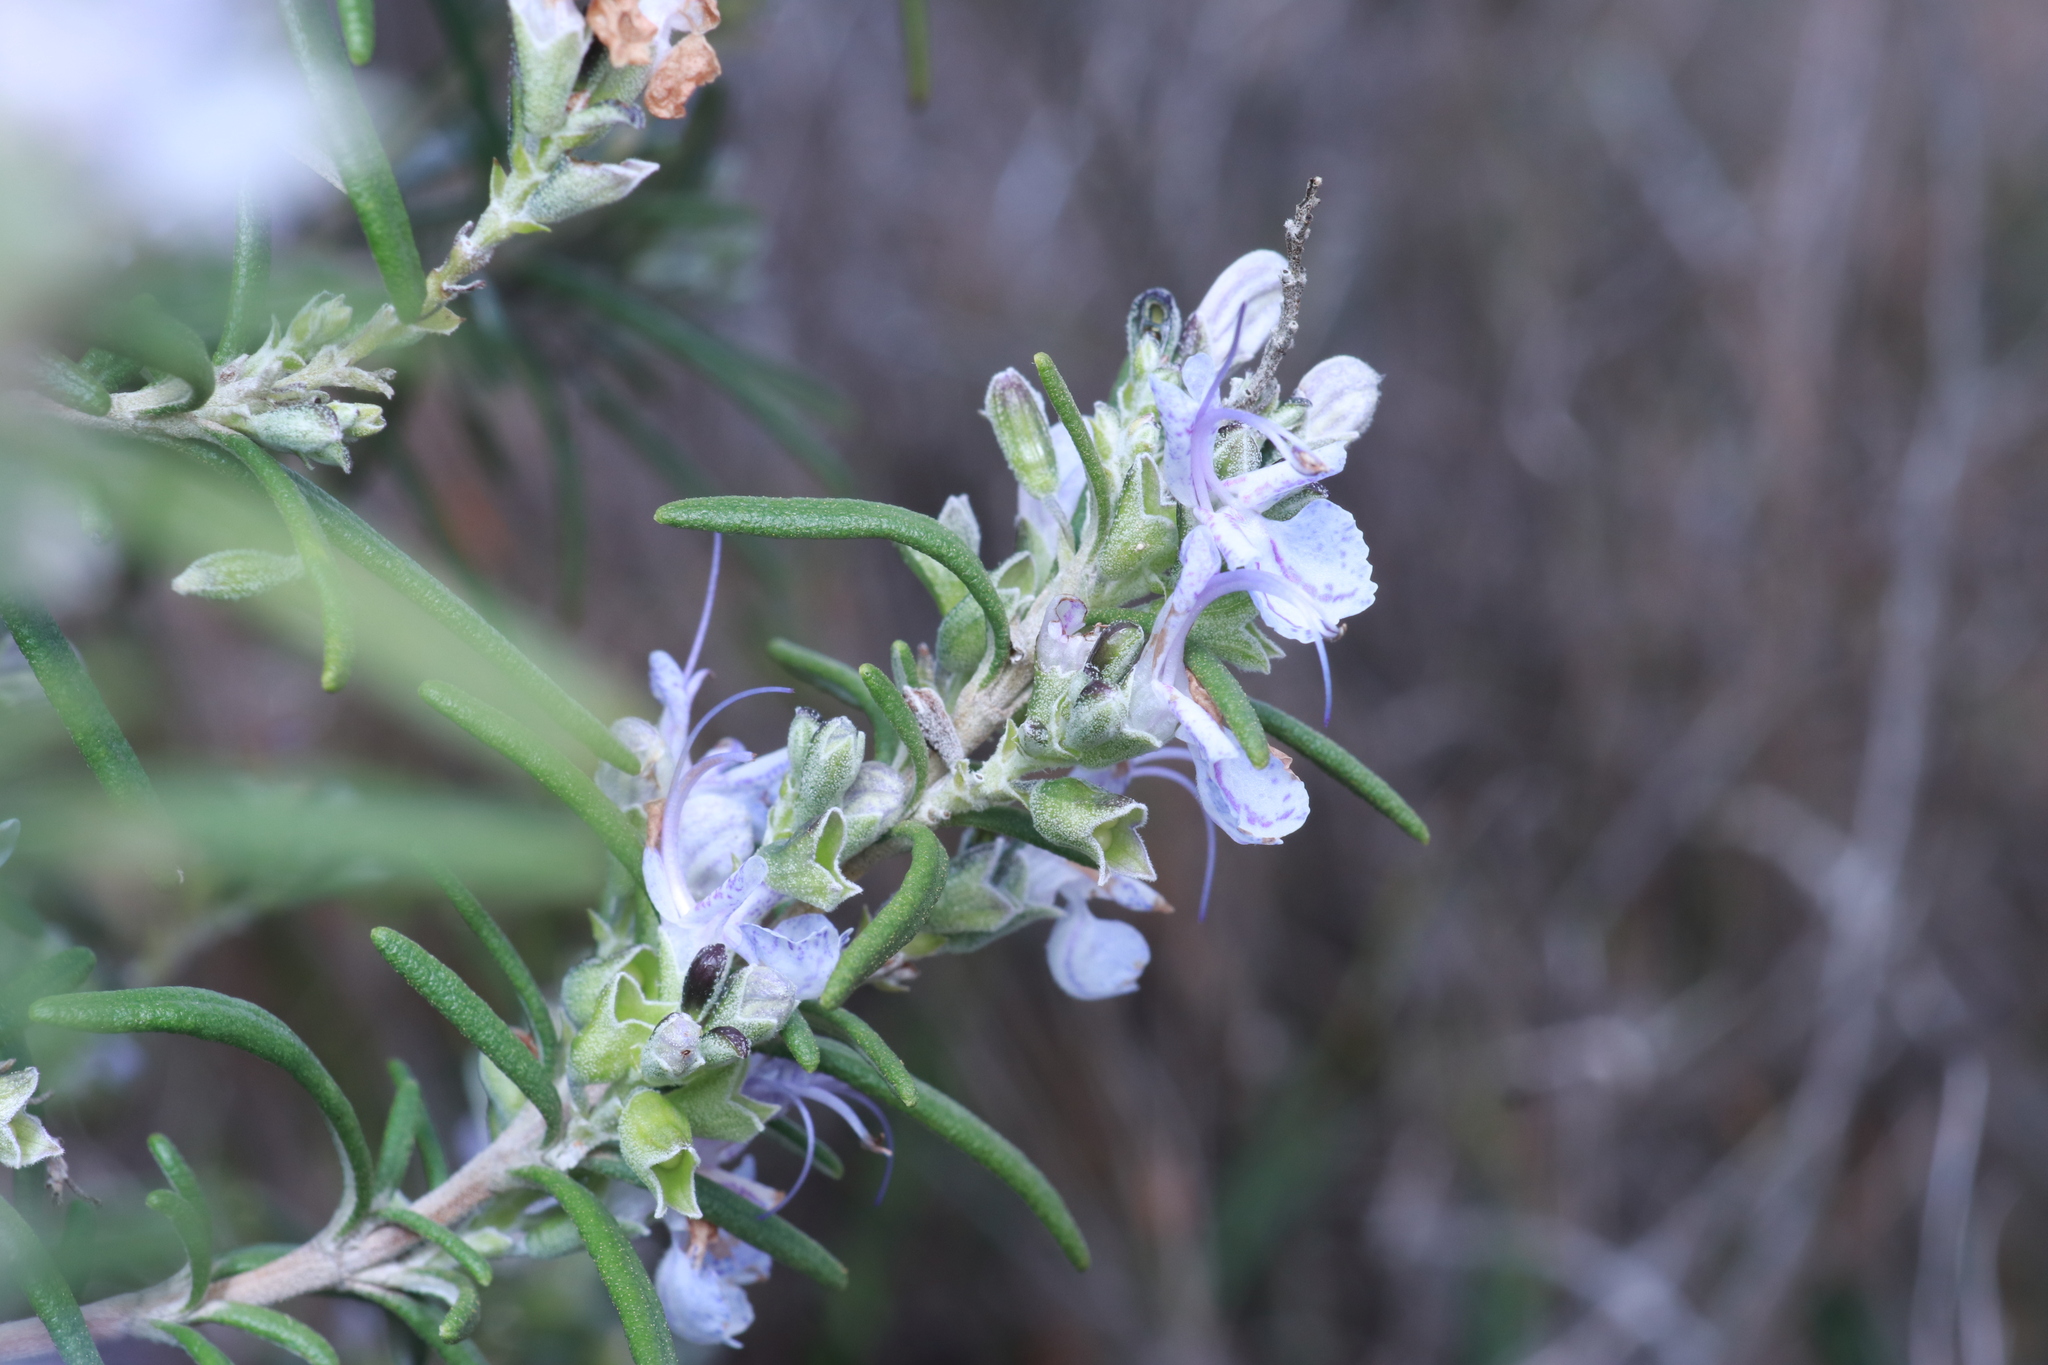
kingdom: Plantae
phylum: Tracheophyta
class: Magnoliopsida
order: Lamiales
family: Lamiaceae
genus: Salvia
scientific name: Salvia rosmarinus
